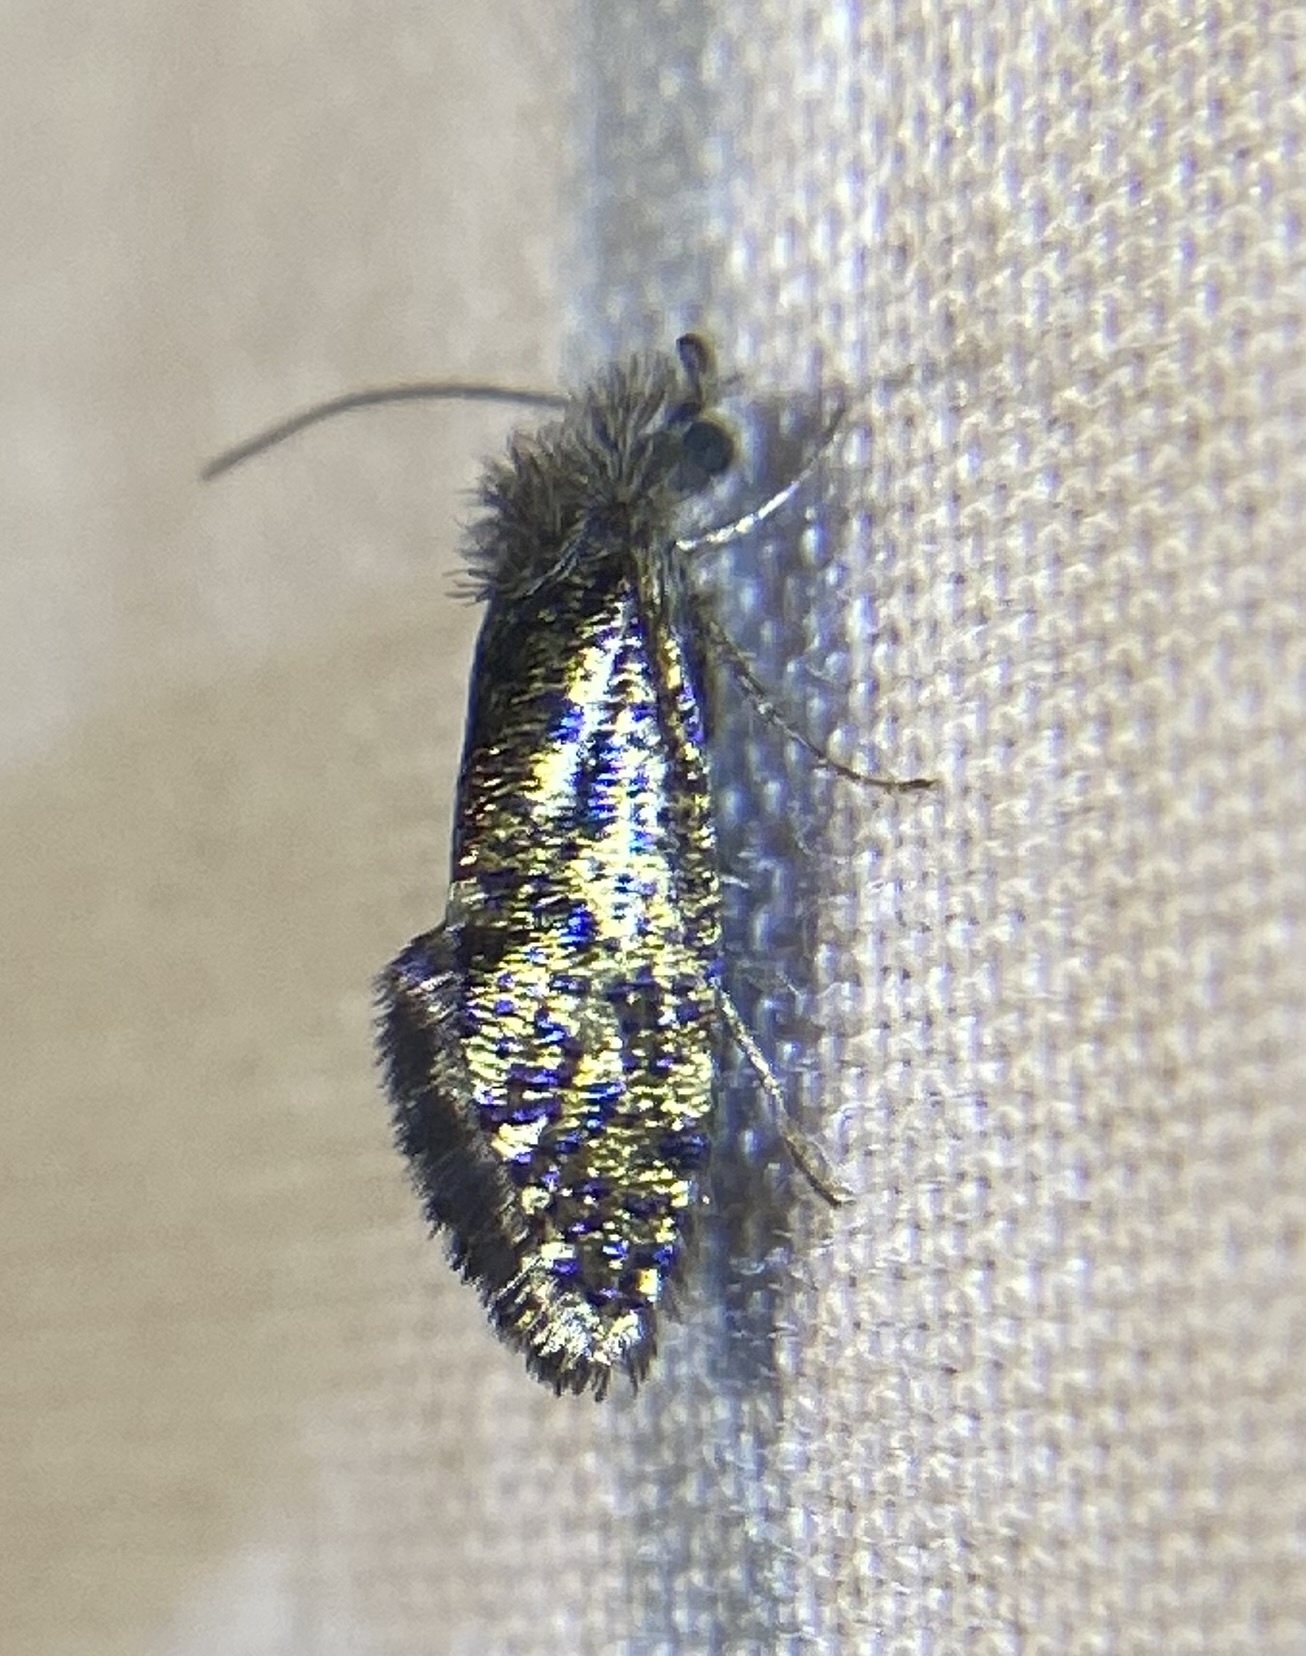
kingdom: Animalia
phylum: Arthropoda
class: Insecta
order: Lepidoptera
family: Eriocraniidae
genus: Dyseriocrania
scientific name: Dyseriocrania griseocapitella
